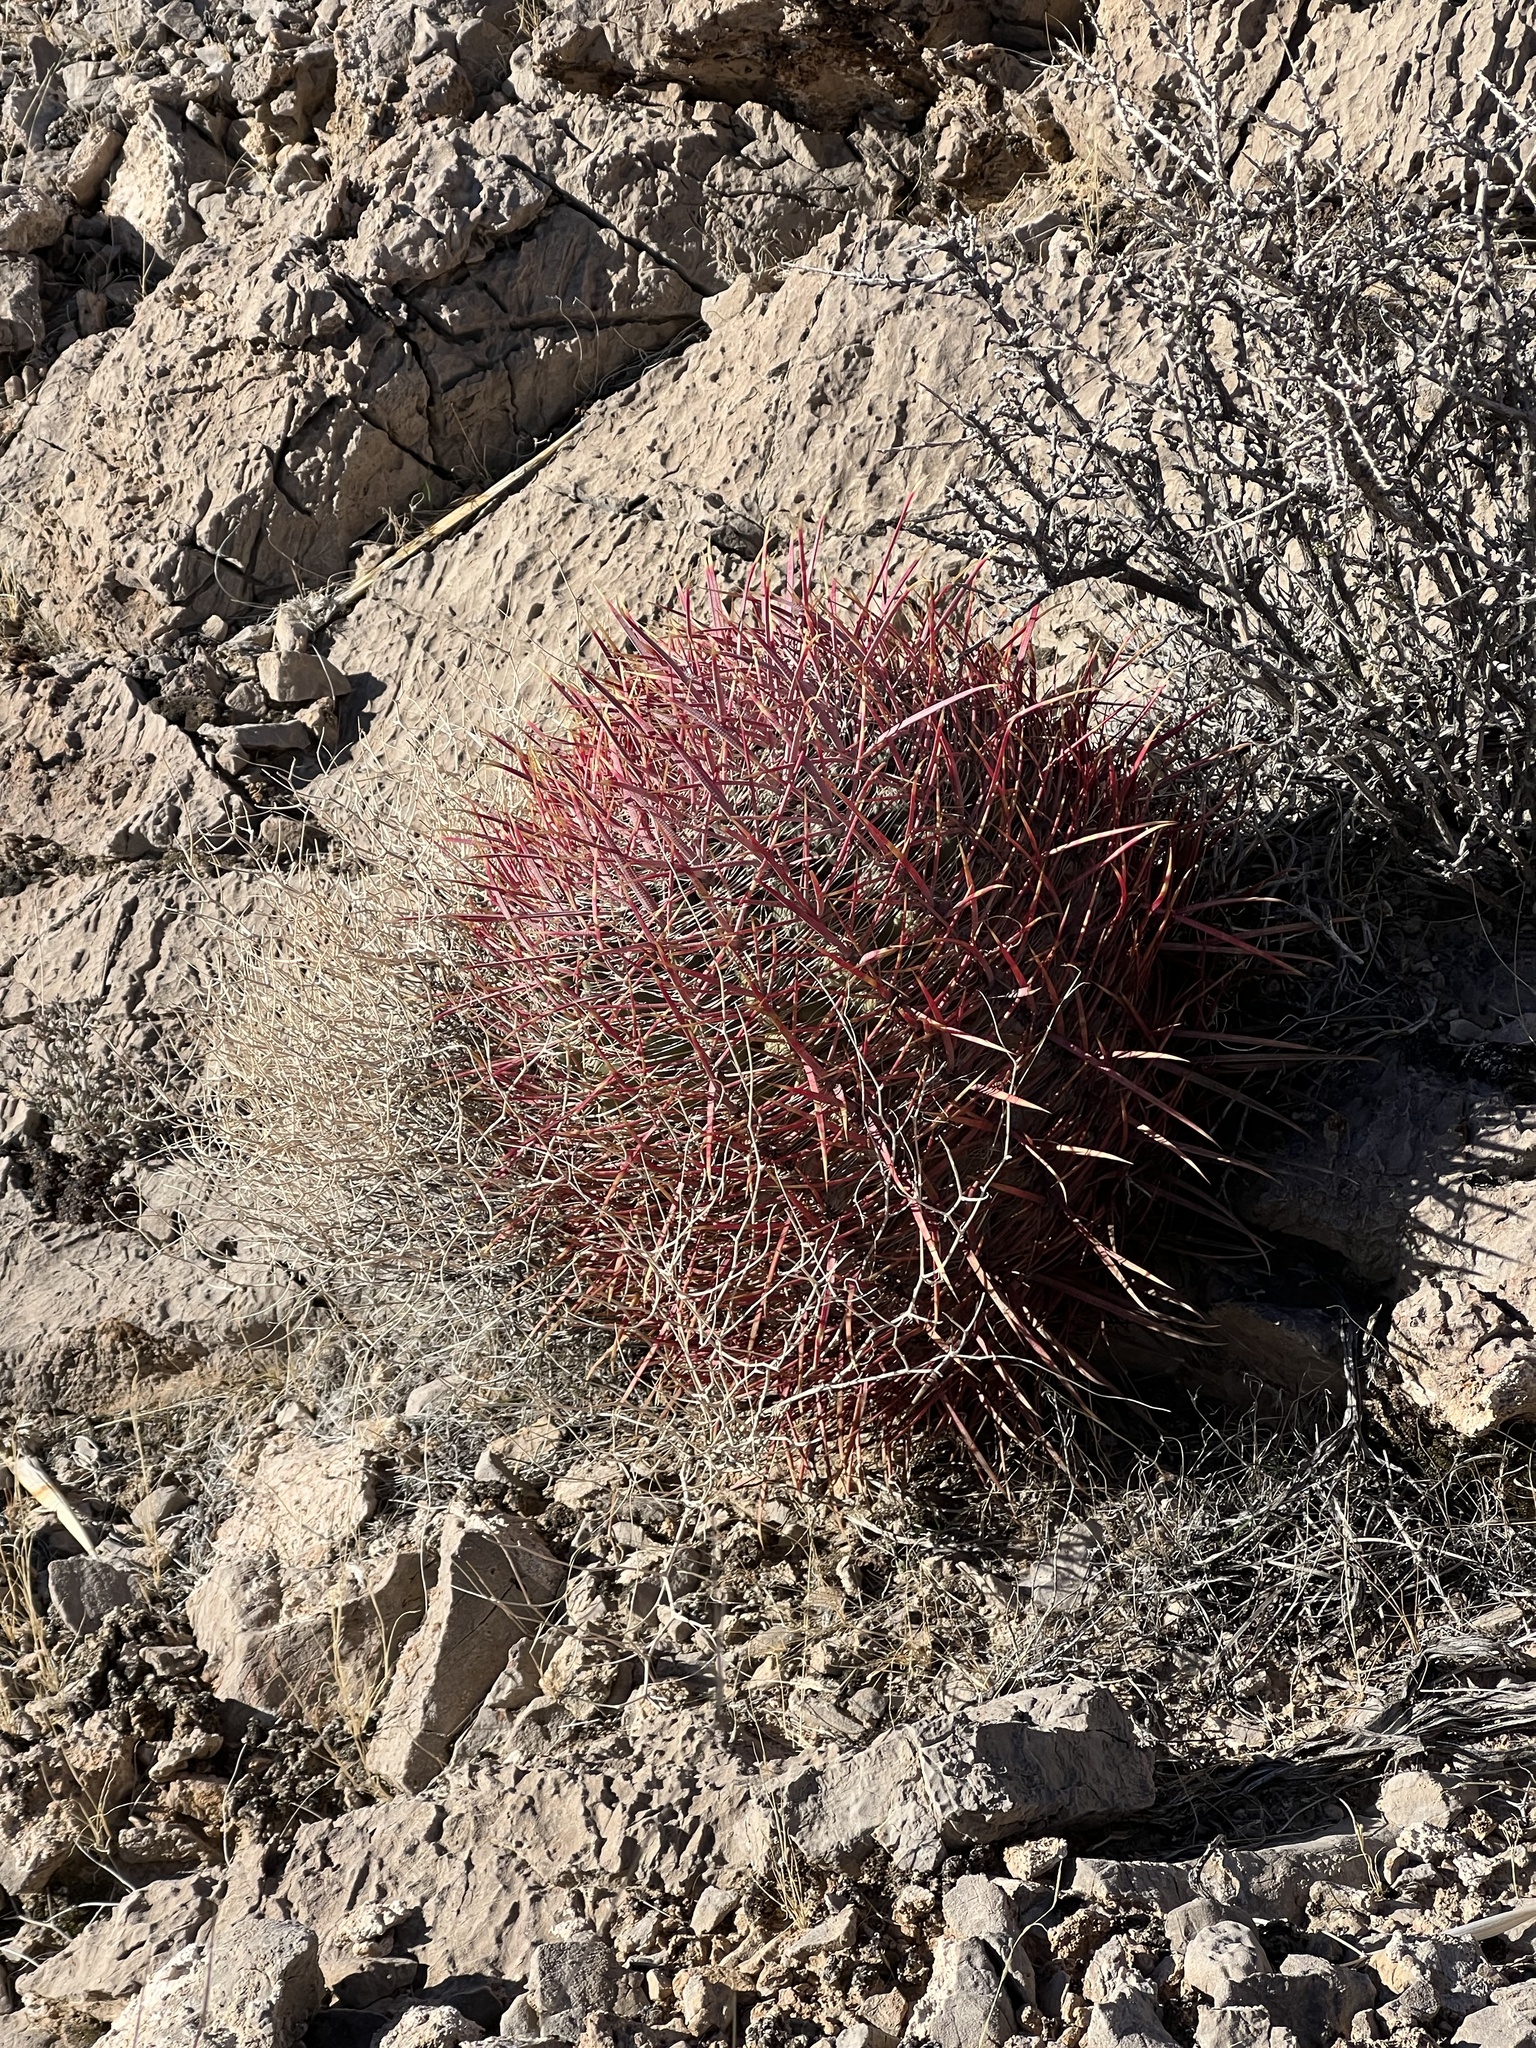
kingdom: Plantae
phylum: Tracheophyta
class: Magnoliopsida
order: Caryophyllales
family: Cactaceae
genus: Ferocactus
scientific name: Ferocactus cylindraceus
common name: California barrel cactus
